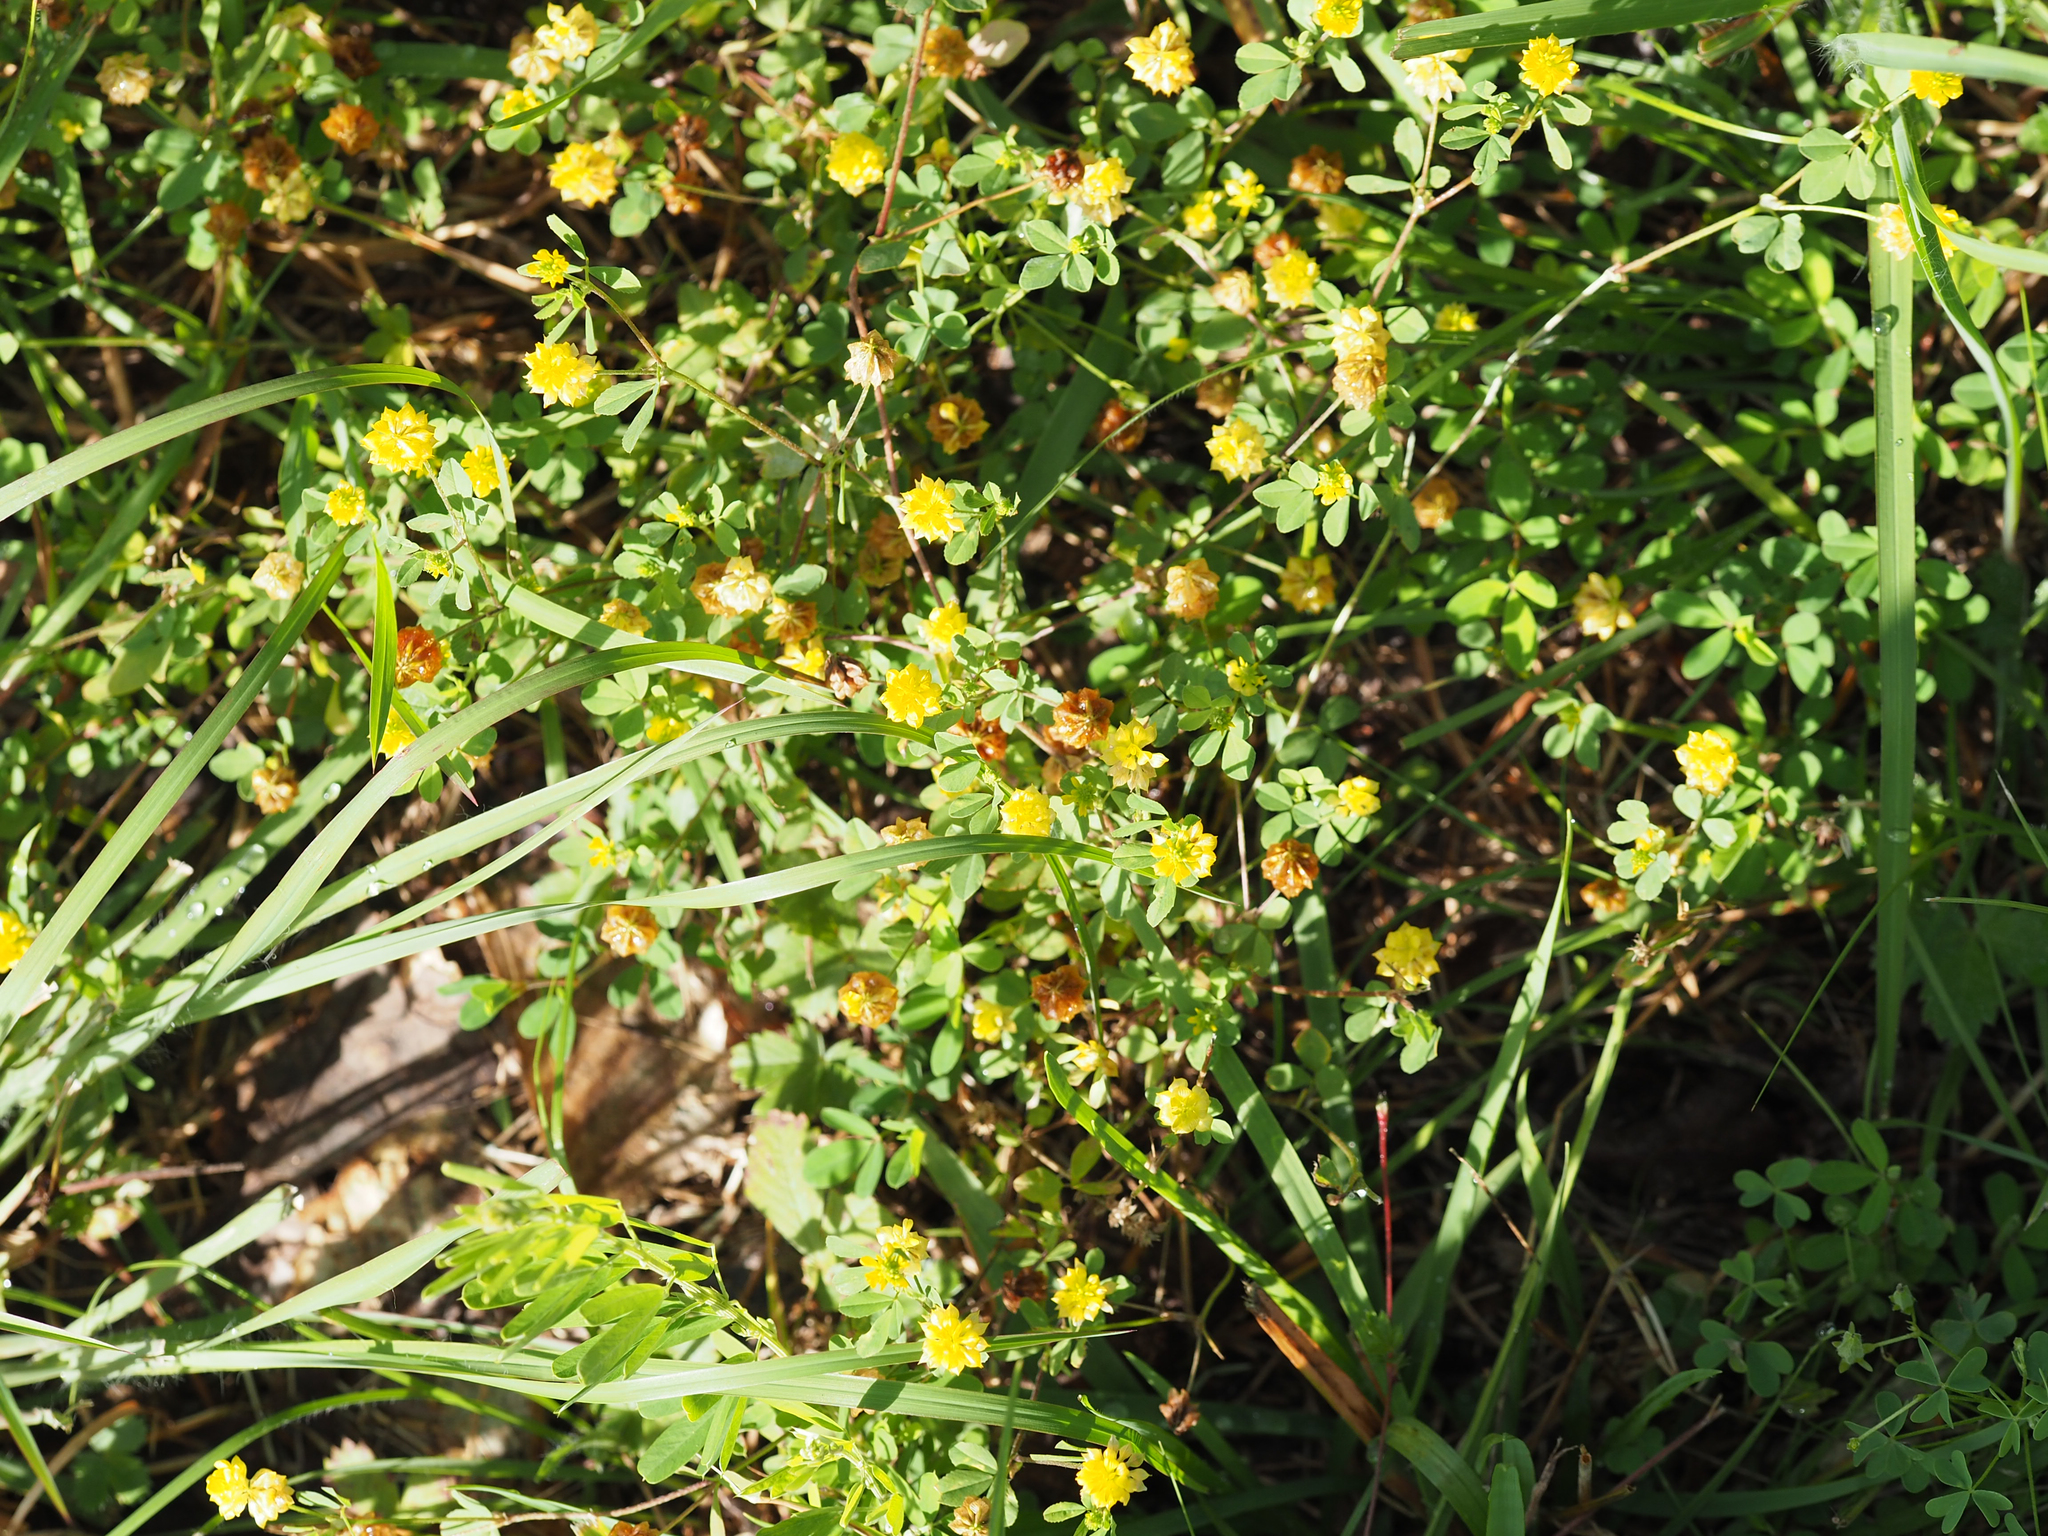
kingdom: Plantae
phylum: Tracheophyta
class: Magnoliopsida
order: Fabales
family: Fabaceae
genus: Trifolium
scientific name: Trifolium campestre
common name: Field clover
